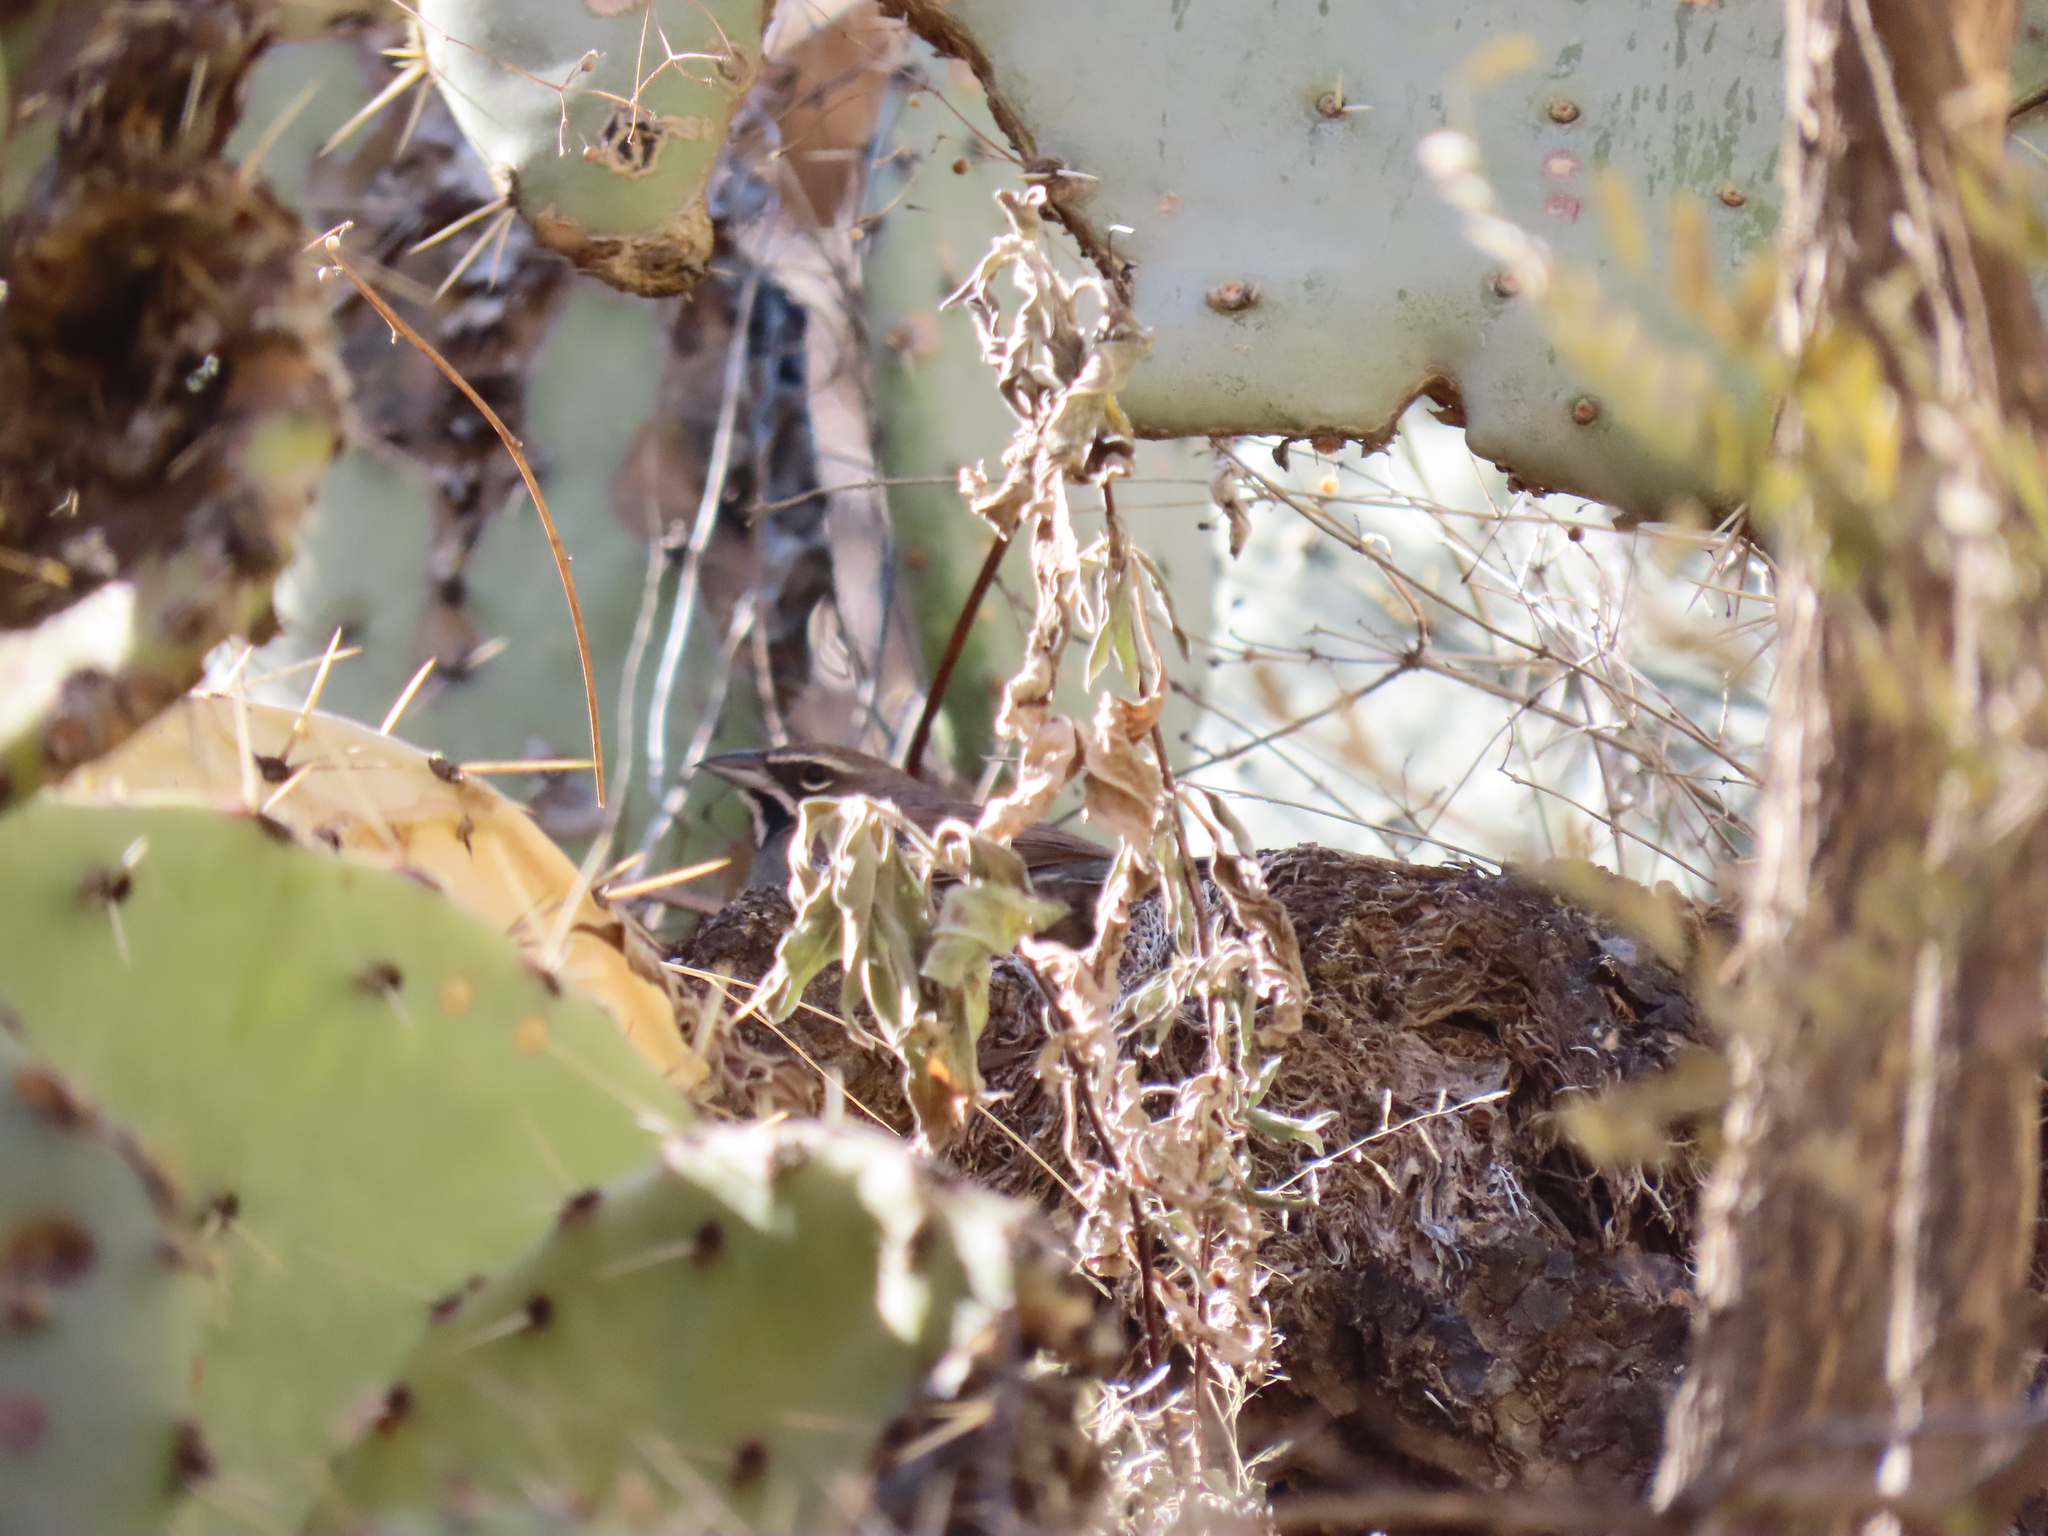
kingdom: Animalia
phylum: Chordata
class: Aves
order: Passeriformes
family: Passerellidae
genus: Amphispizopsis
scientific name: Amphispizopsis quinquestriata
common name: Five-striped sparrow
